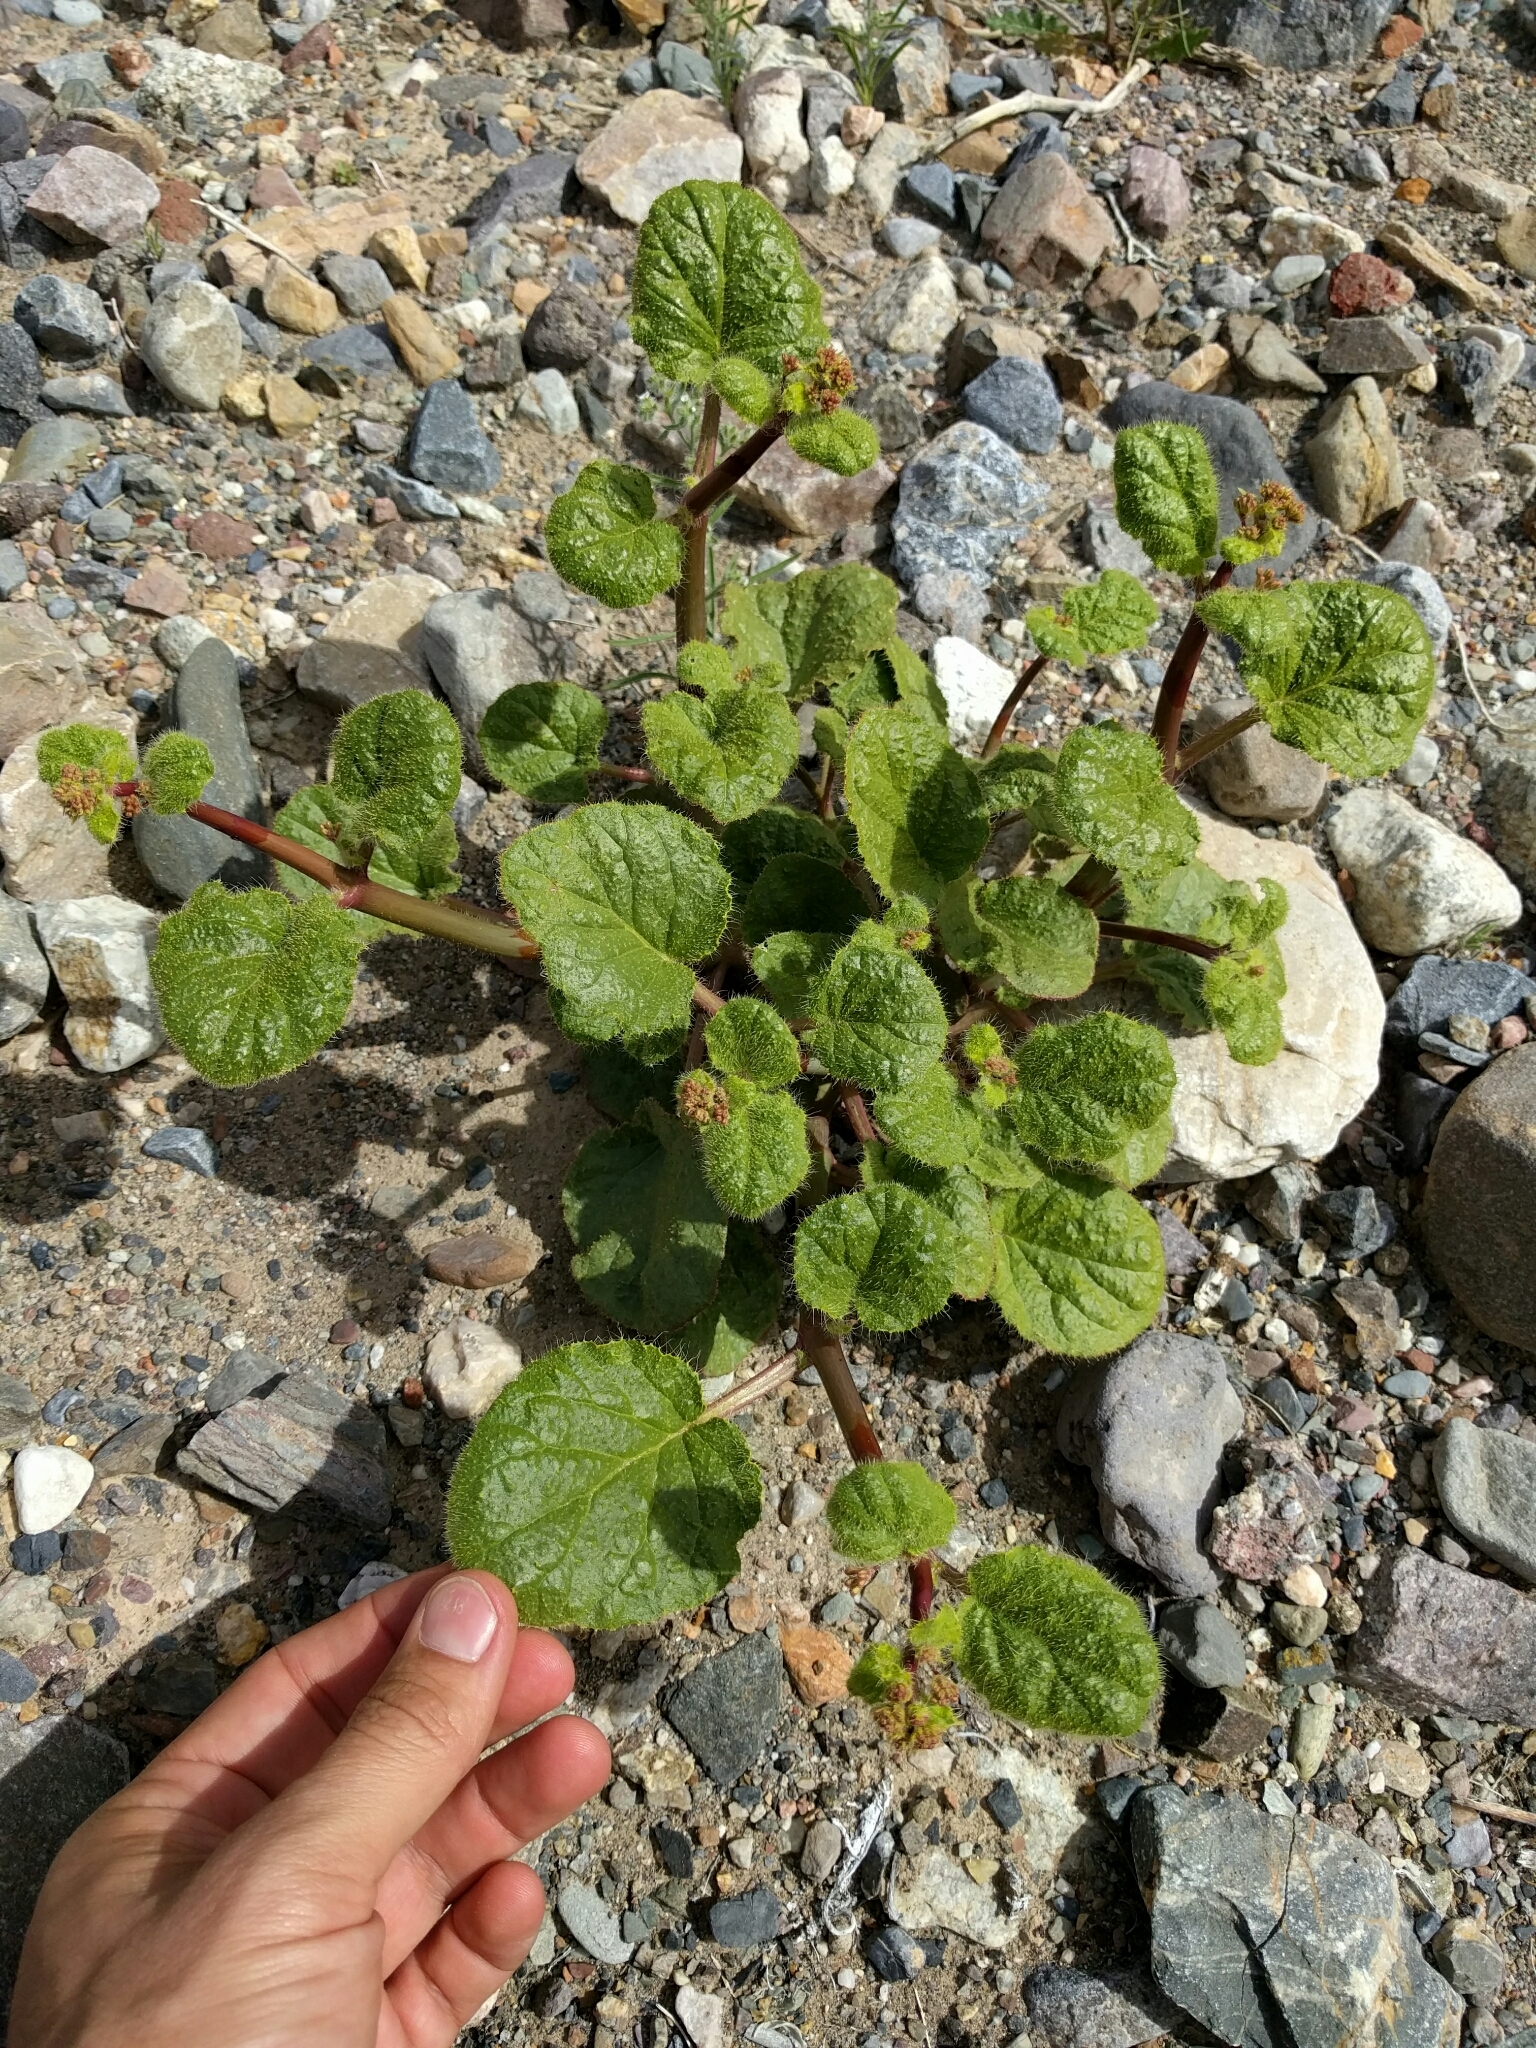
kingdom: Plantae
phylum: Tracheophyta
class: Magnoliopsida
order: Caryophyllales
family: Nyctaginaceae
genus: Anulocaulis
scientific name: Anulocaulis annulatus
